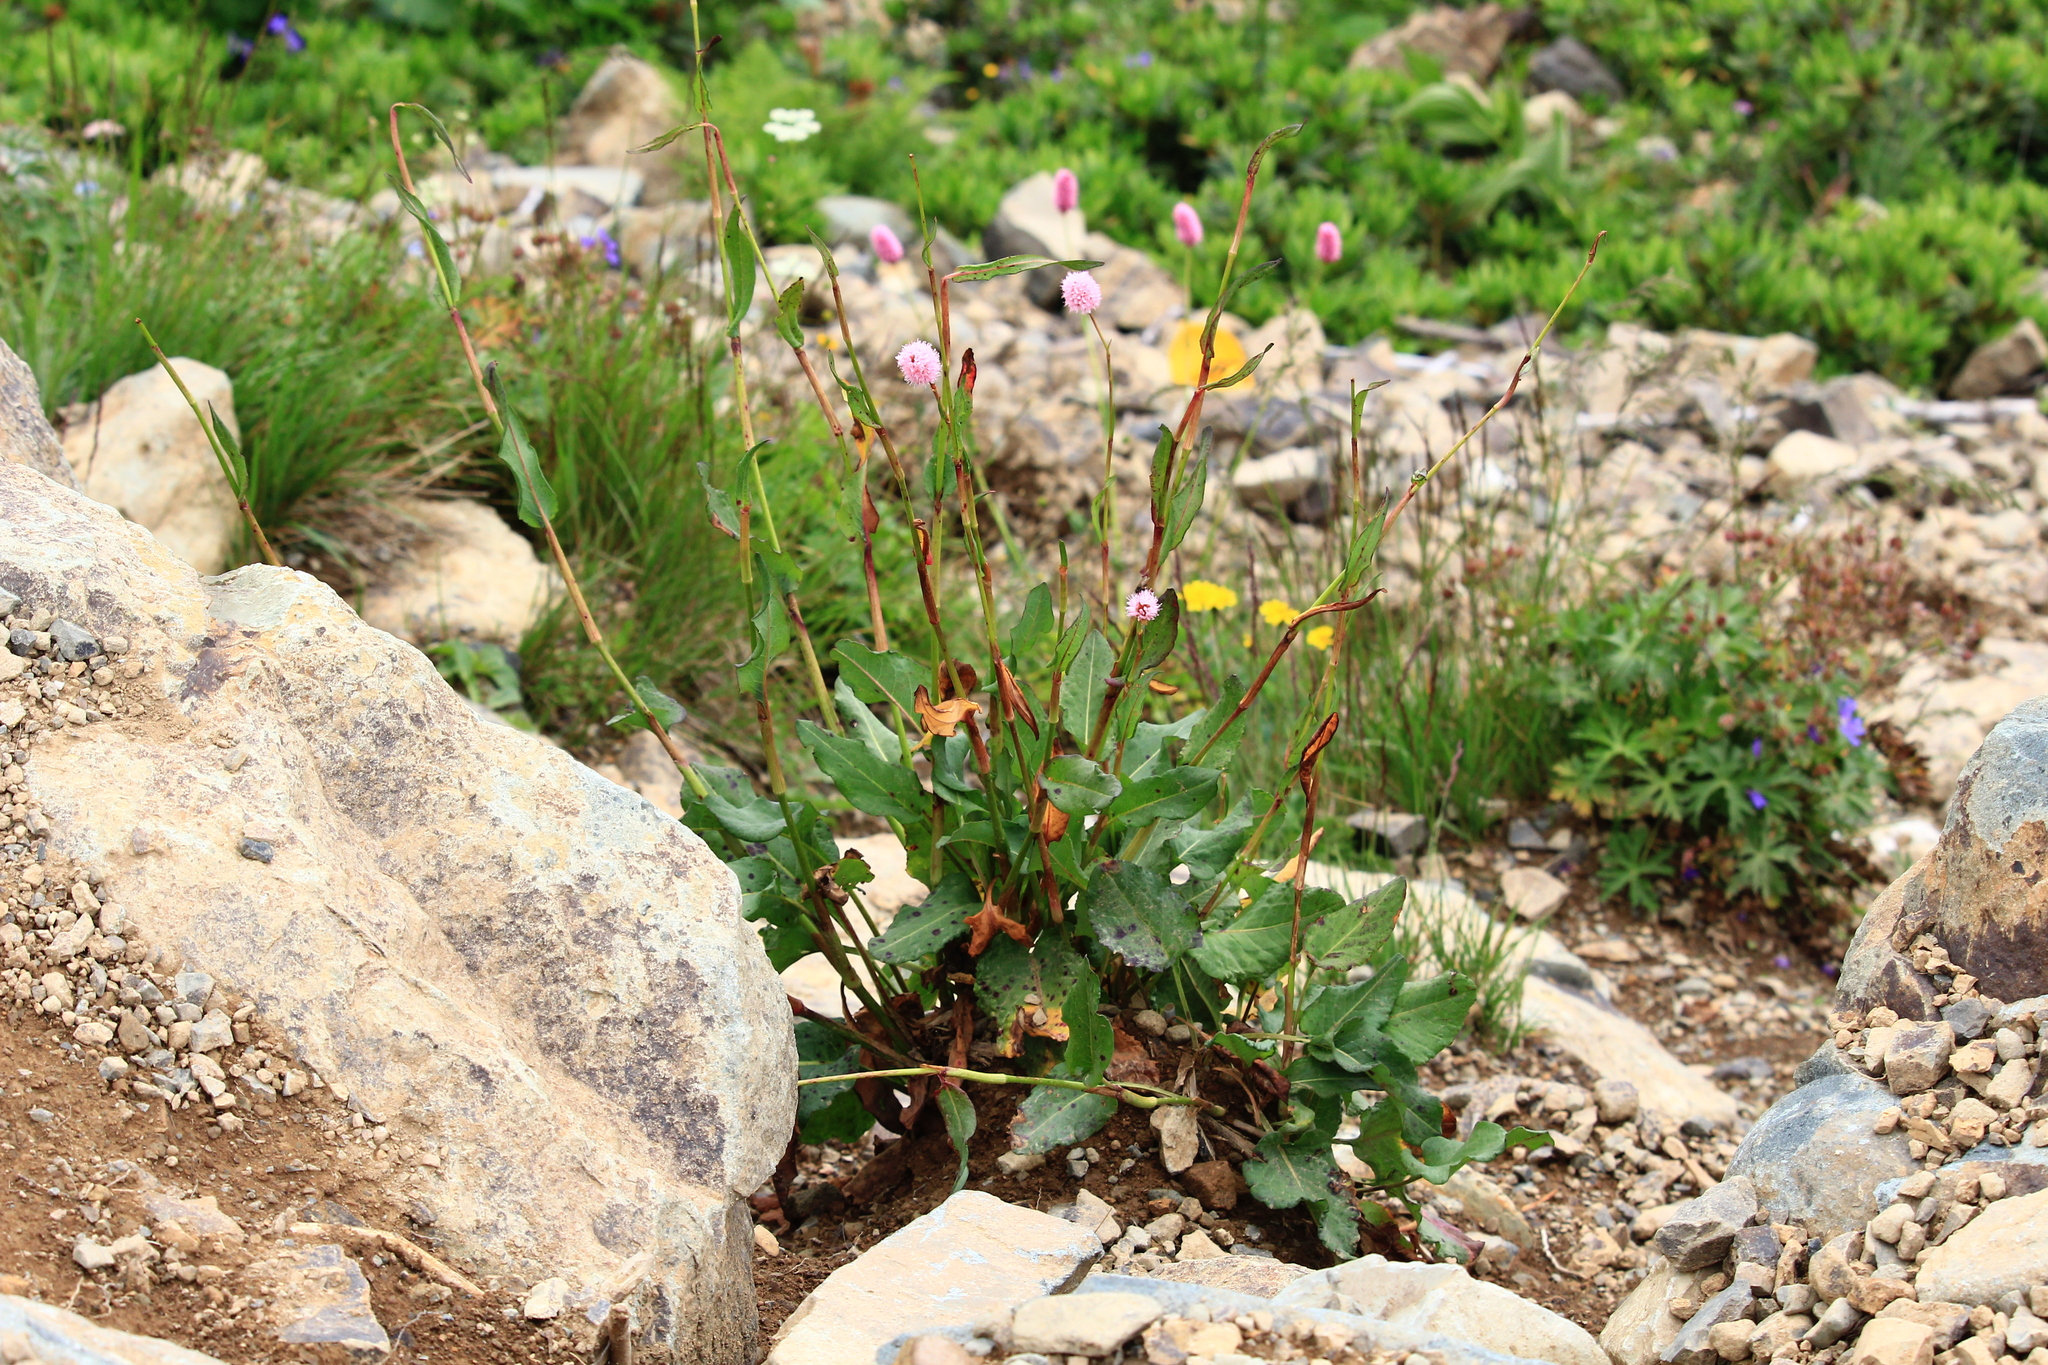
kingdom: Plantae
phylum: Tracheophyta
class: Magnoliopsida
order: Caryophyllales
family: Polygonaceae
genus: Bistorta
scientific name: Bistorta carnea
